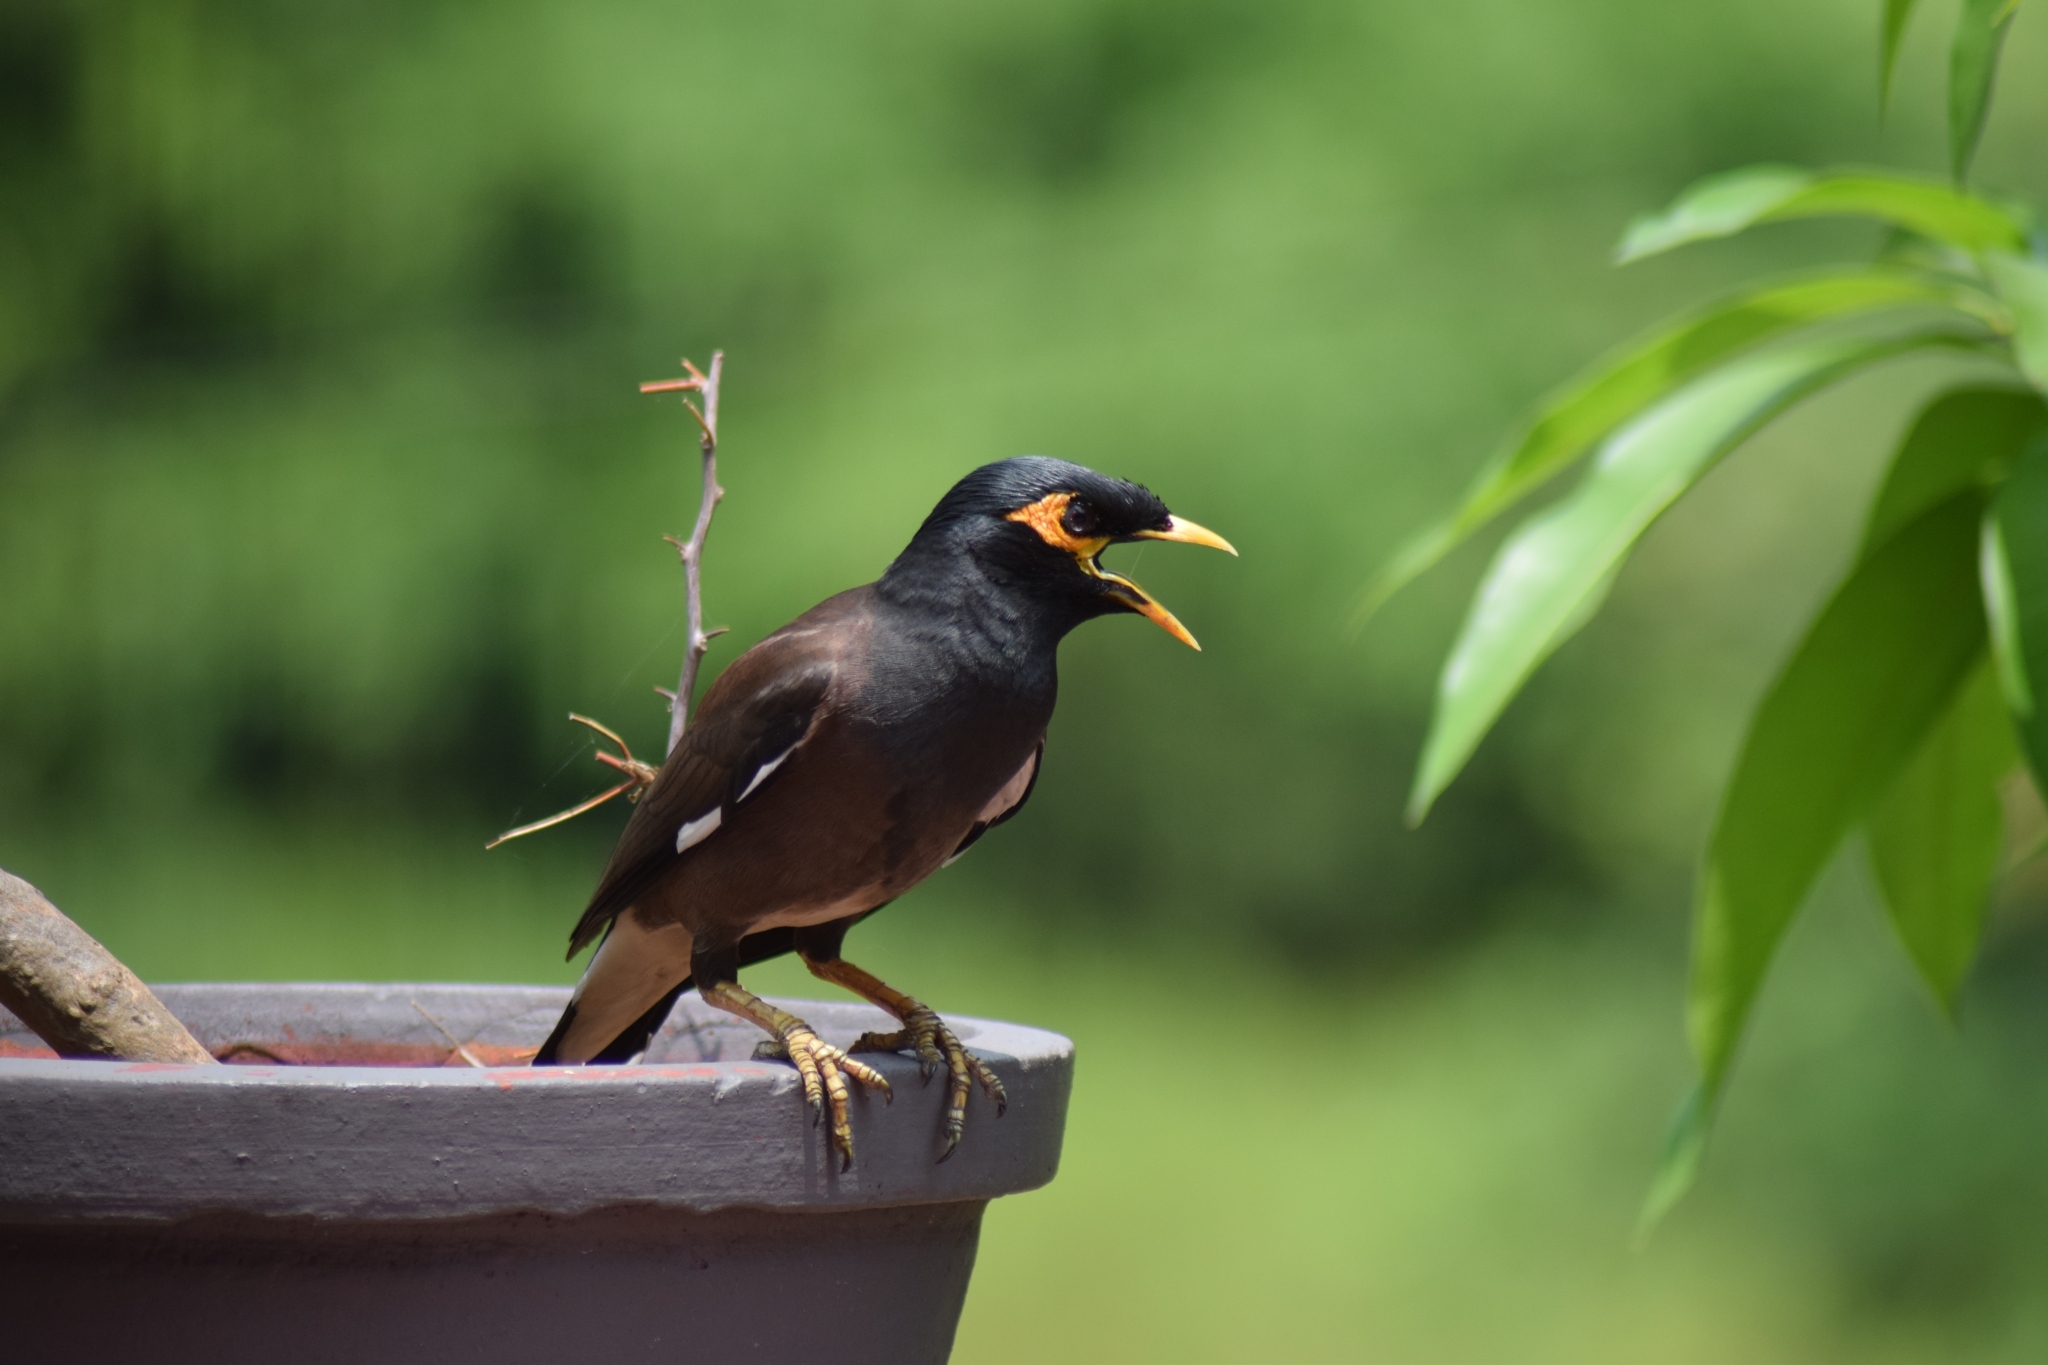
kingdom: Animalia
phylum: Chordata
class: Aves
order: Passeriformes
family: Sturnidae
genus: Acridotheres
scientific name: Acridotheres tristis
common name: Common myna
